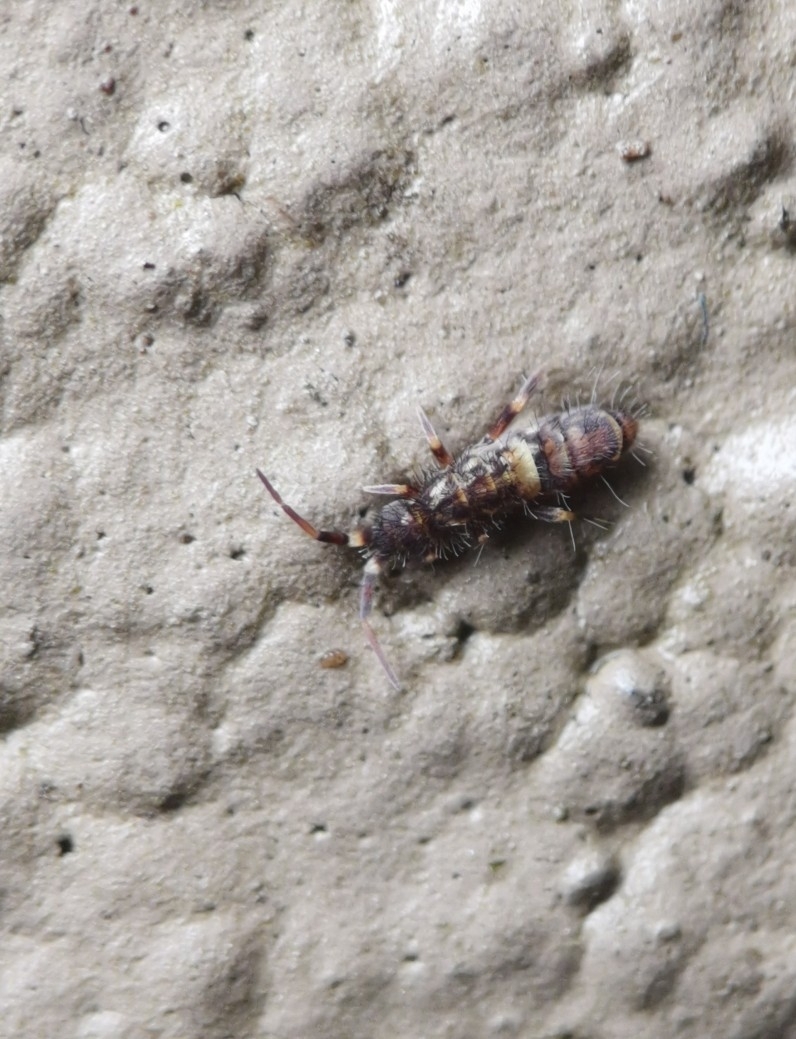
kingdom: Animalia
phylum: Arthropoda
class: Collembola
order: Entomobryomorpha
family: Orchesellidae
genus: Orchesella
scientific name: Orchesella cincta
